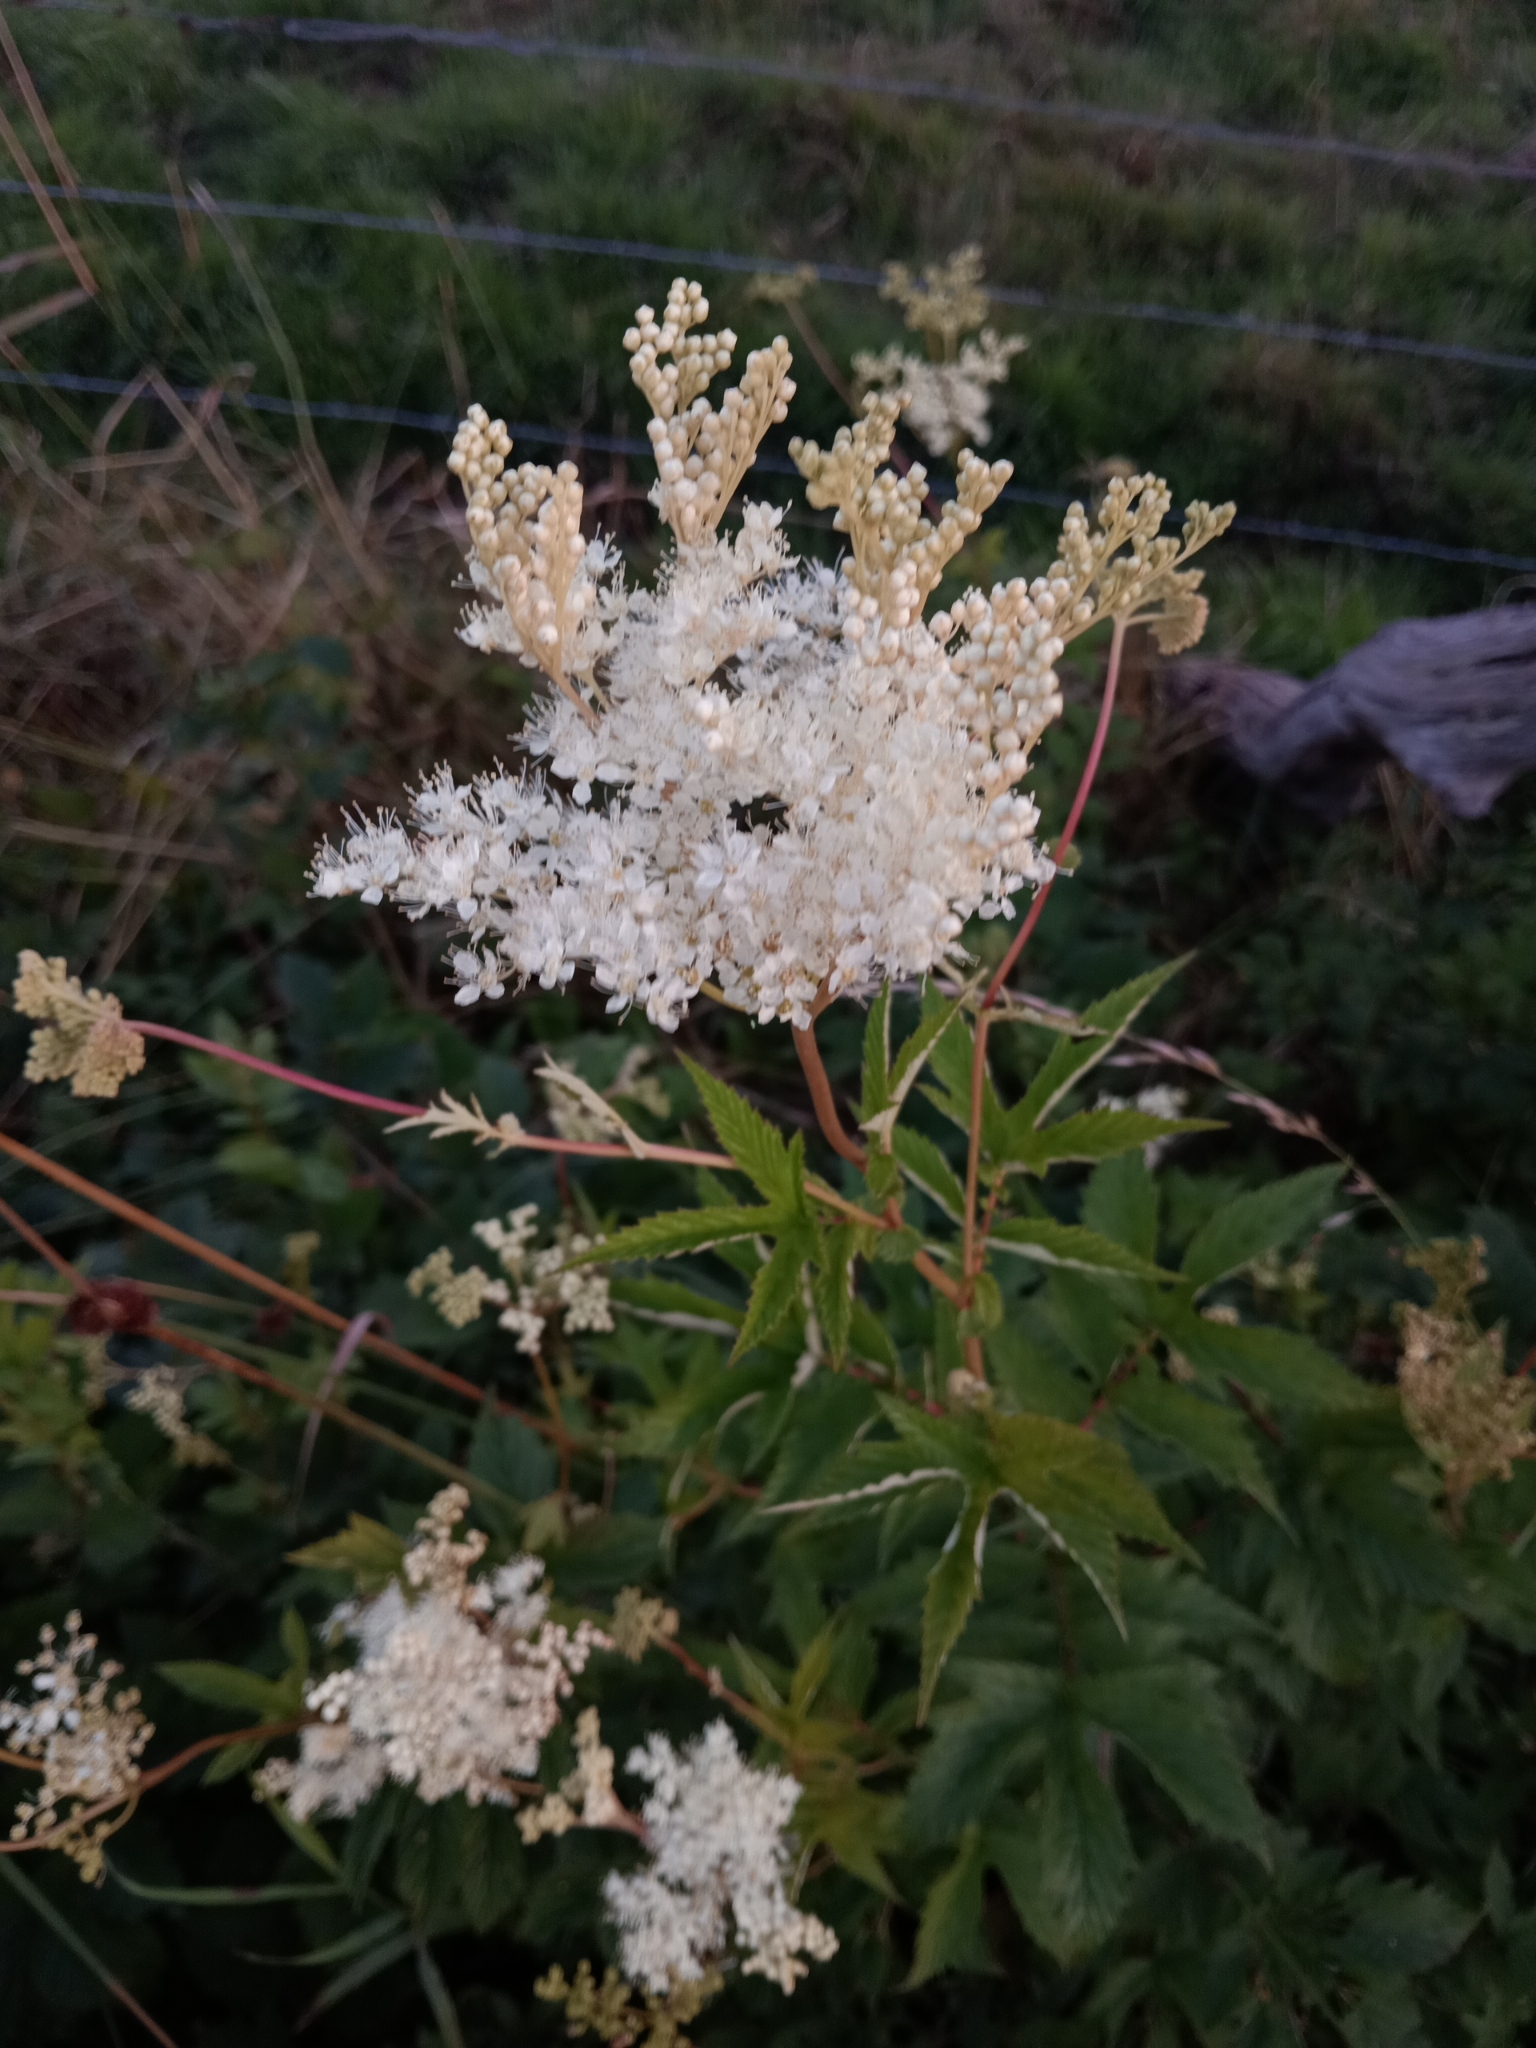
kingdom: Plantae
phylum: Tracheophyta
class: Magnoliopsida
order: Rosales
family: Rosaceae
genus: Filipendula
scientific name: Filipendula ulmaria
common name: Meadowsweet
